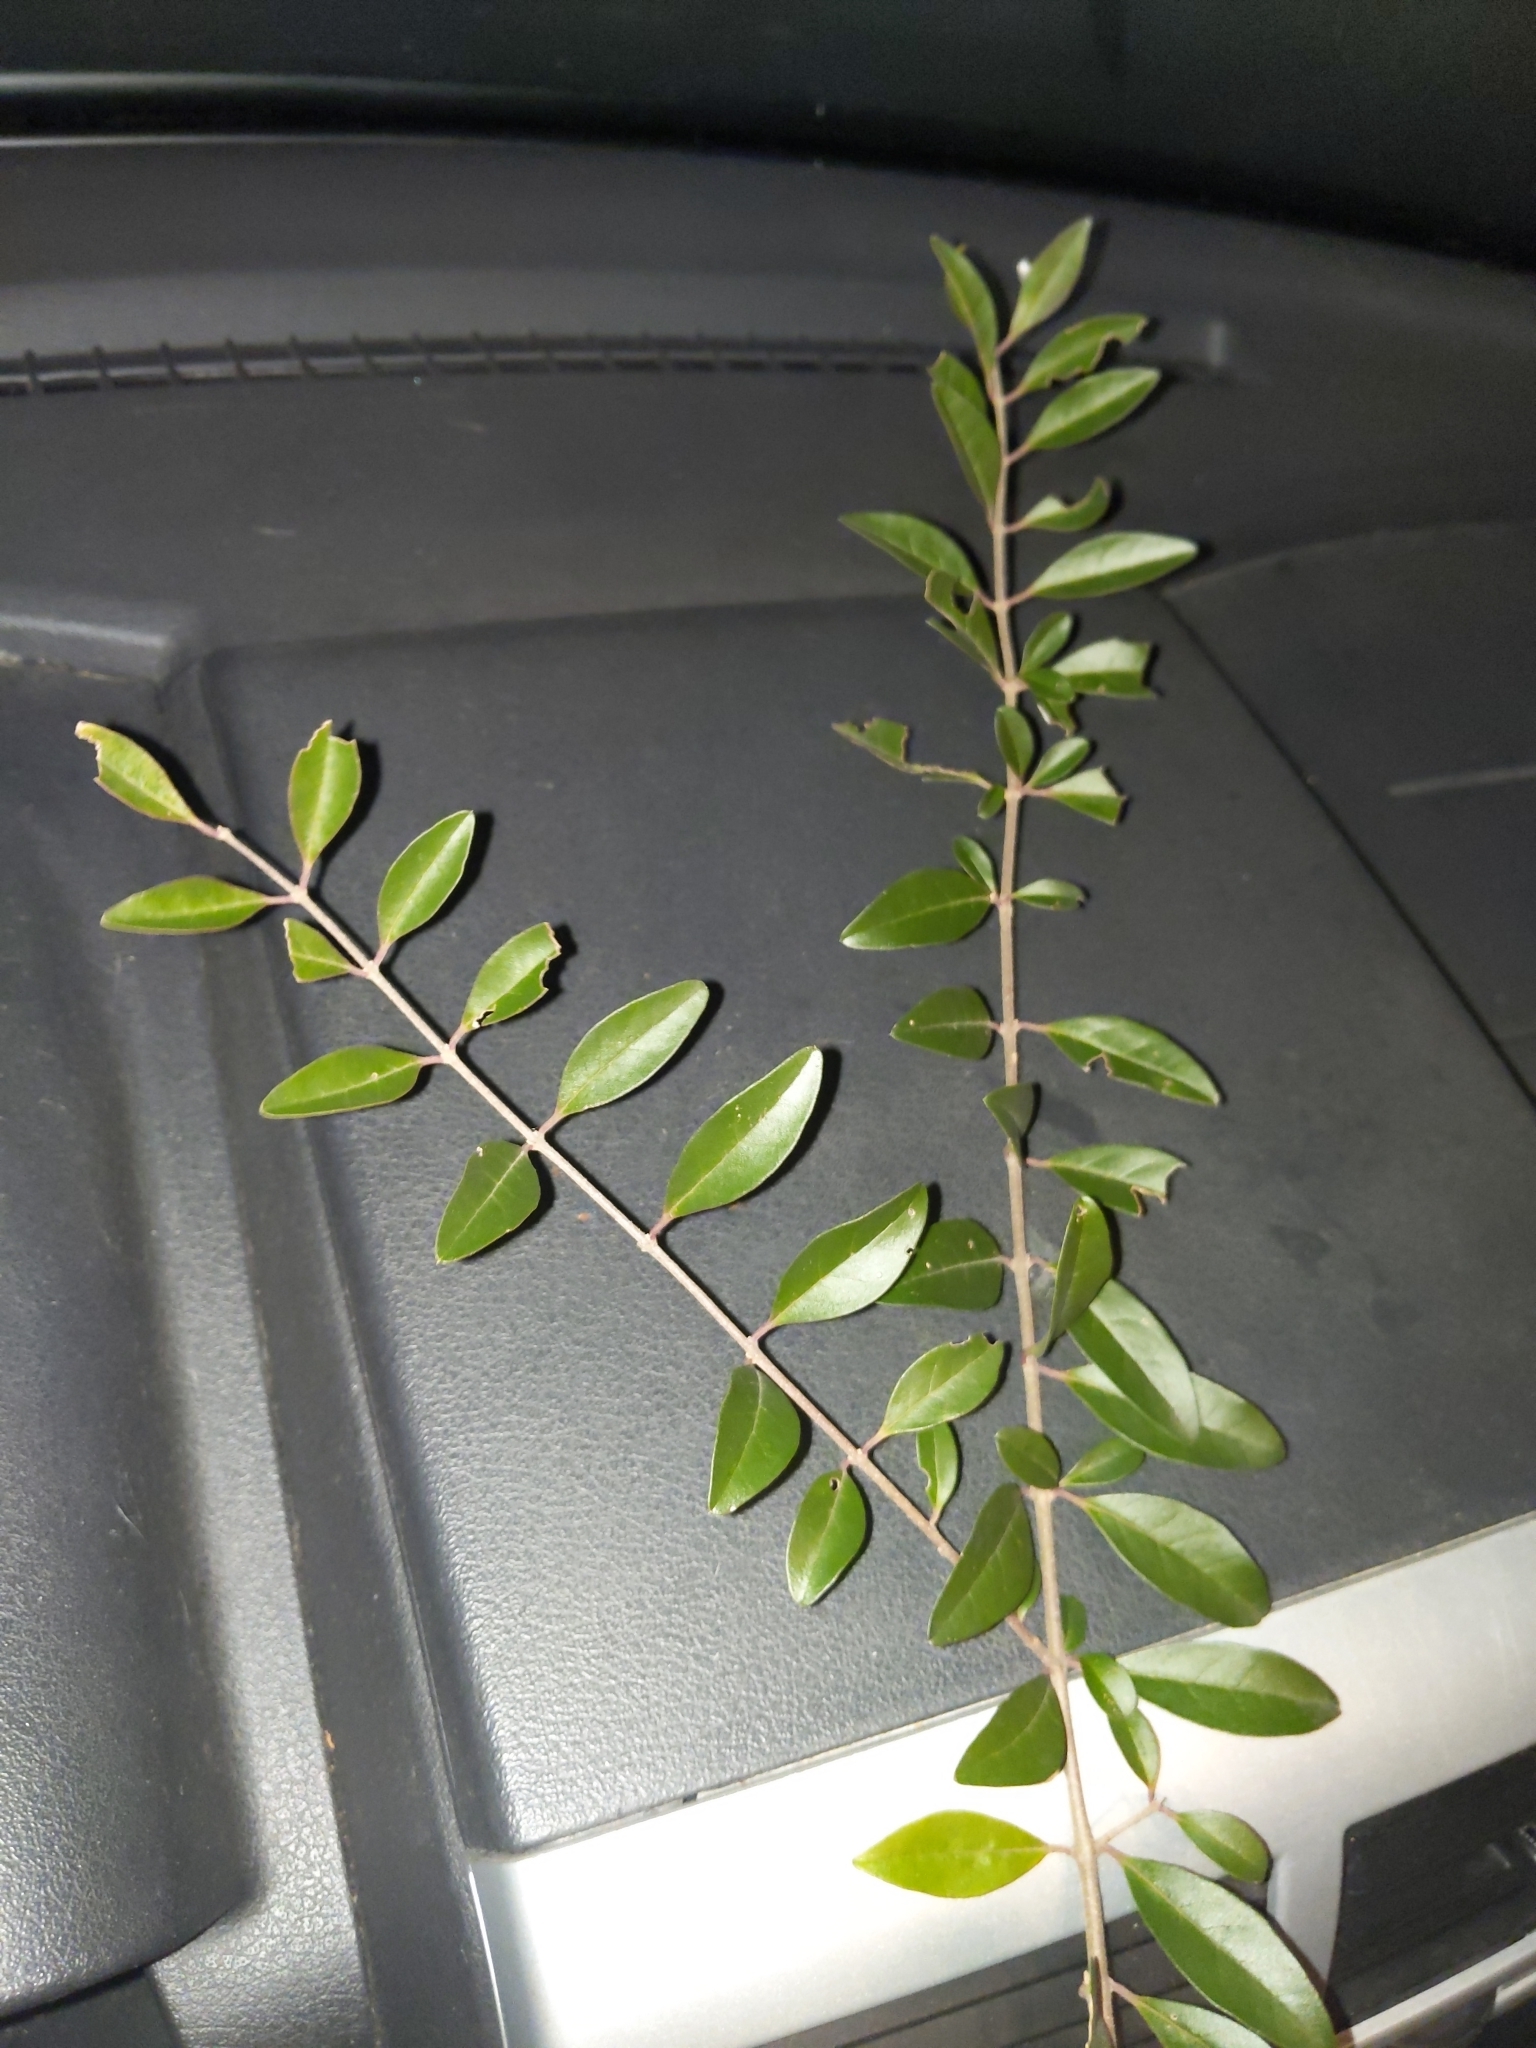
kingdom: Plantae
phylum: Tracheophyta
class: Magnoliopsida
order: Lamiales
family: Oleaceae
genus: Ligustrum
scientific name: Ligustrum sinense
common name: Chinese privet
